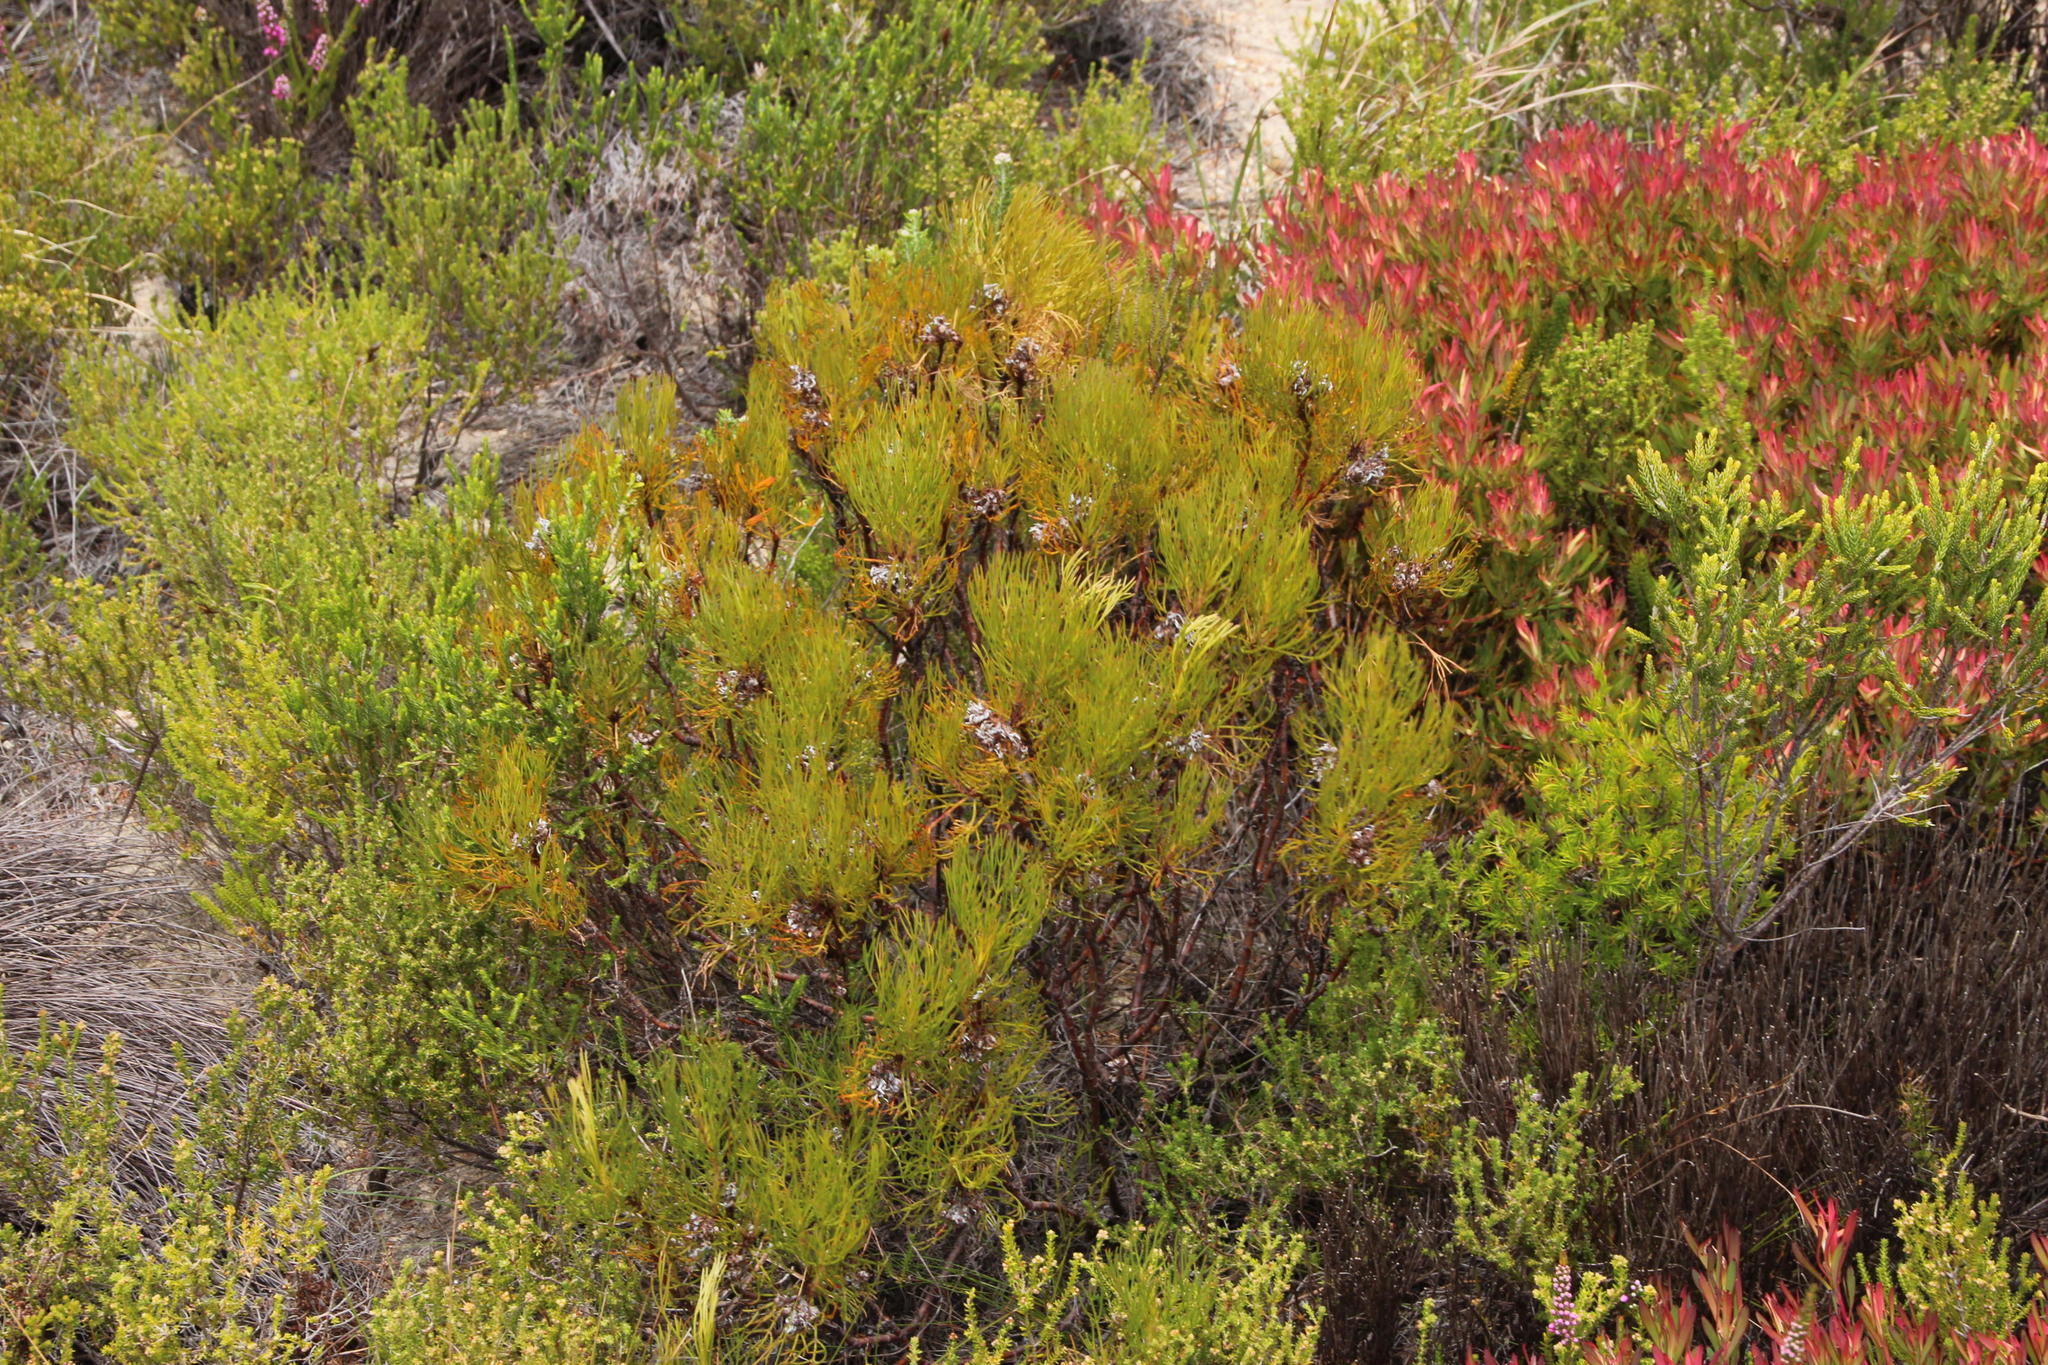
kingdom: Plantae
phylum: Tracheophyta
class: Magnoliopsida
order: Proteales
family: Proteaceae
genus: Serruria
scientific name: Serruria ascendens
